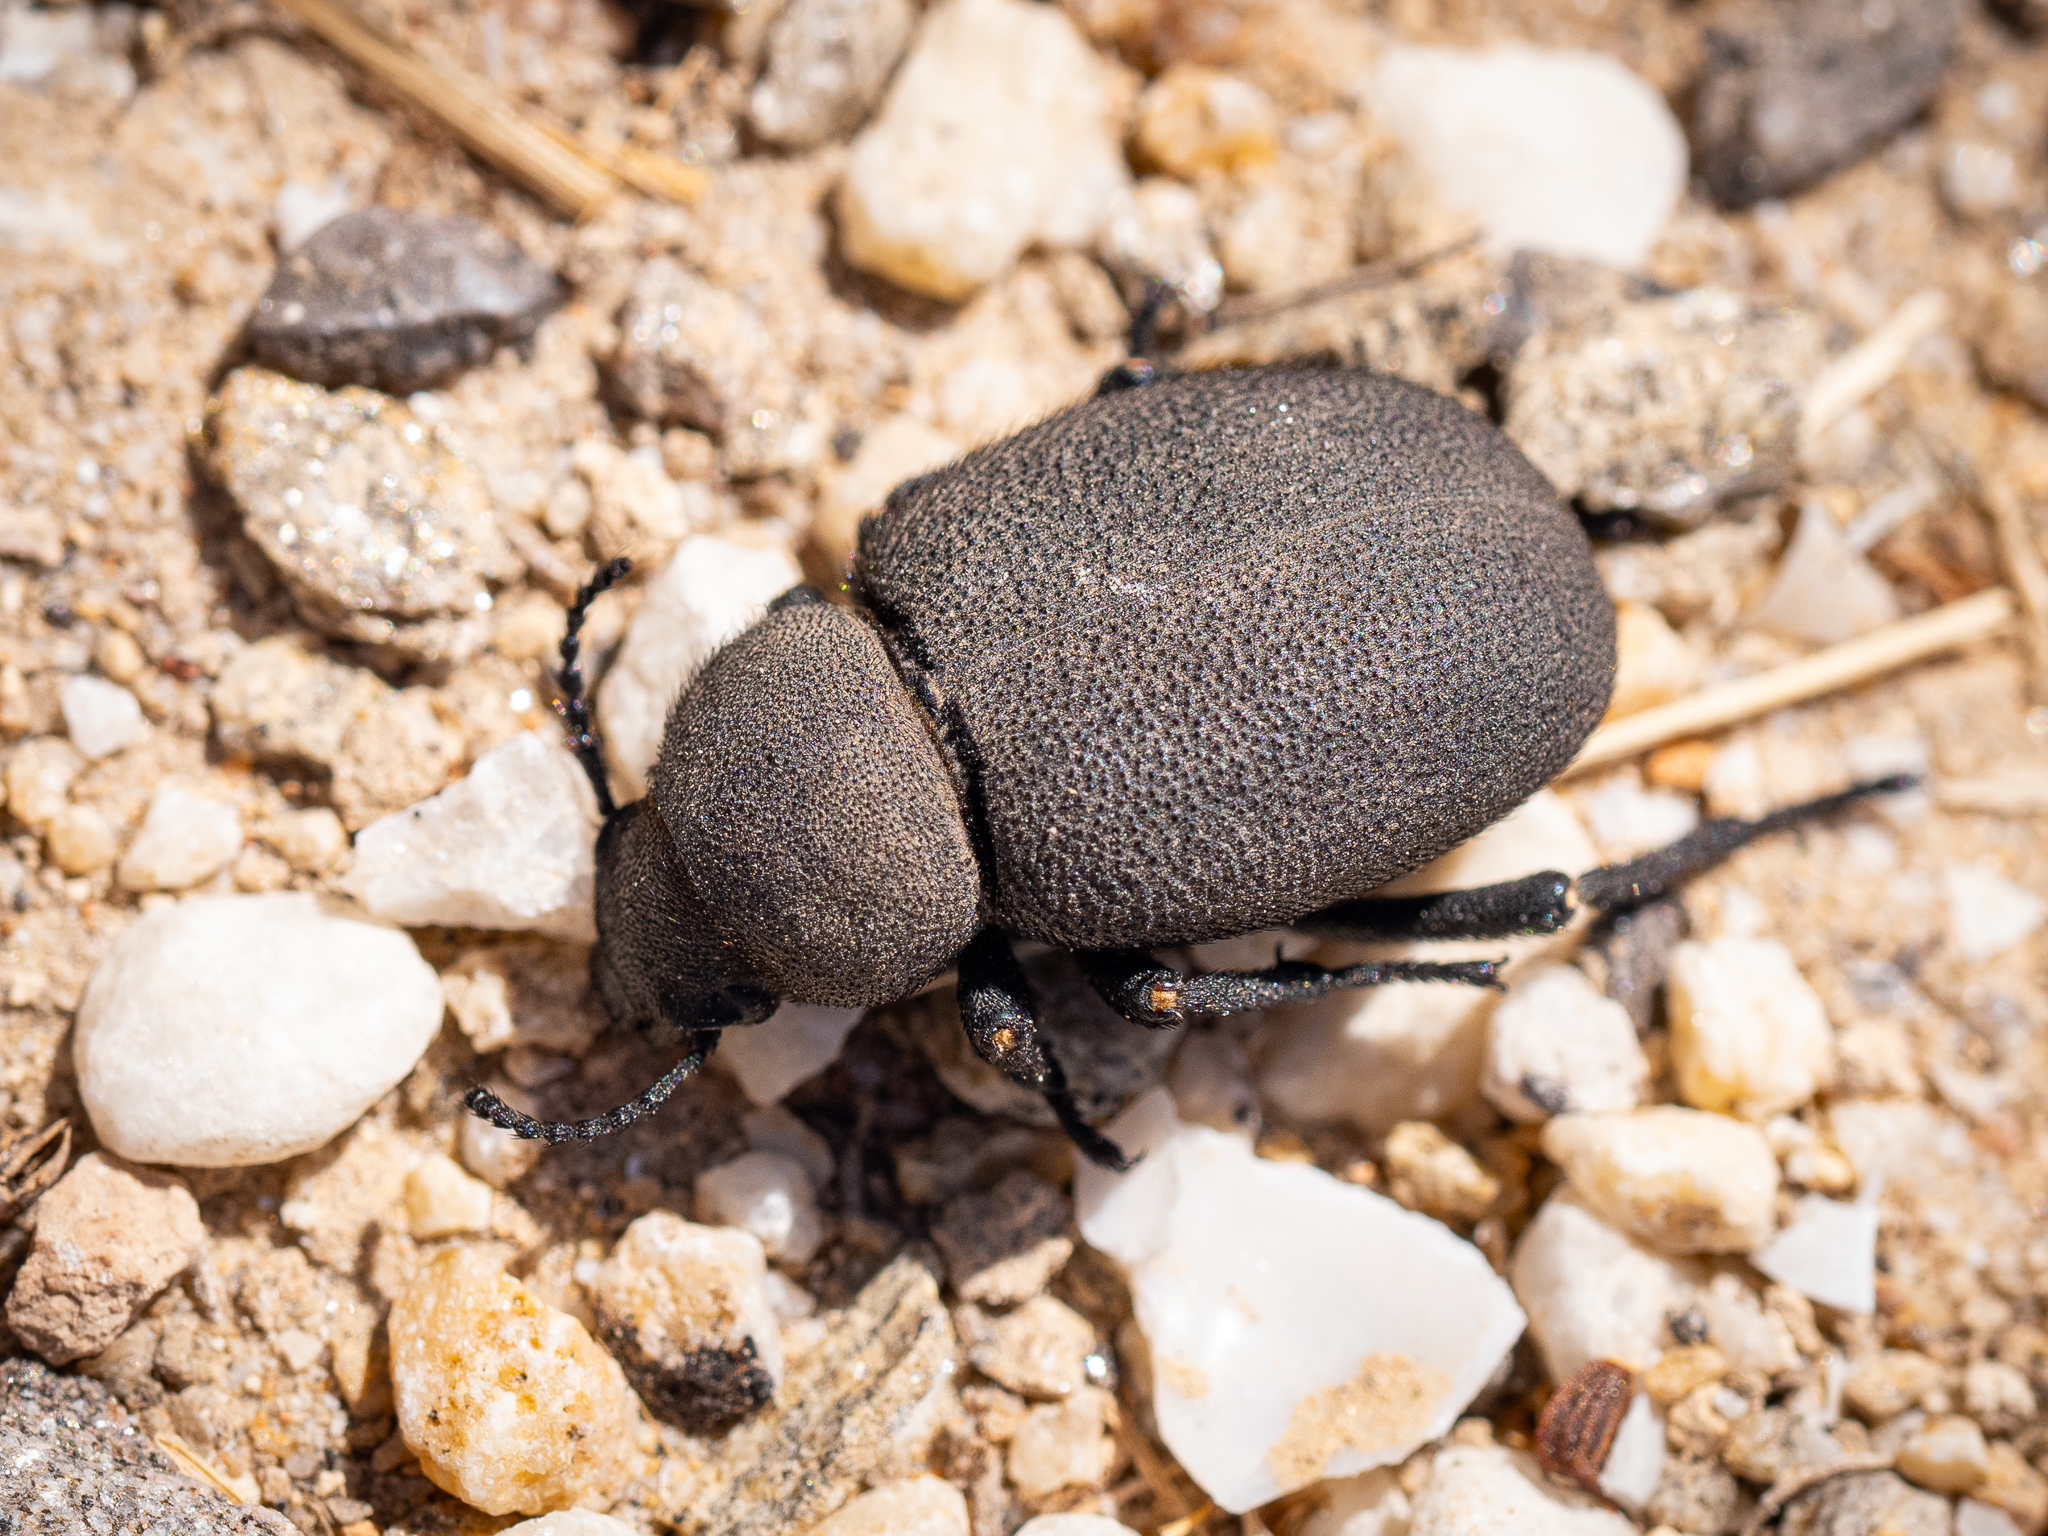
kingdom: Animalia
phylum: Arthropoda
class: Insecta
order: Coleoptera
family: Tenebrionidae
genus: Pachyscelis
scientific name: Pachyscelis villosa
